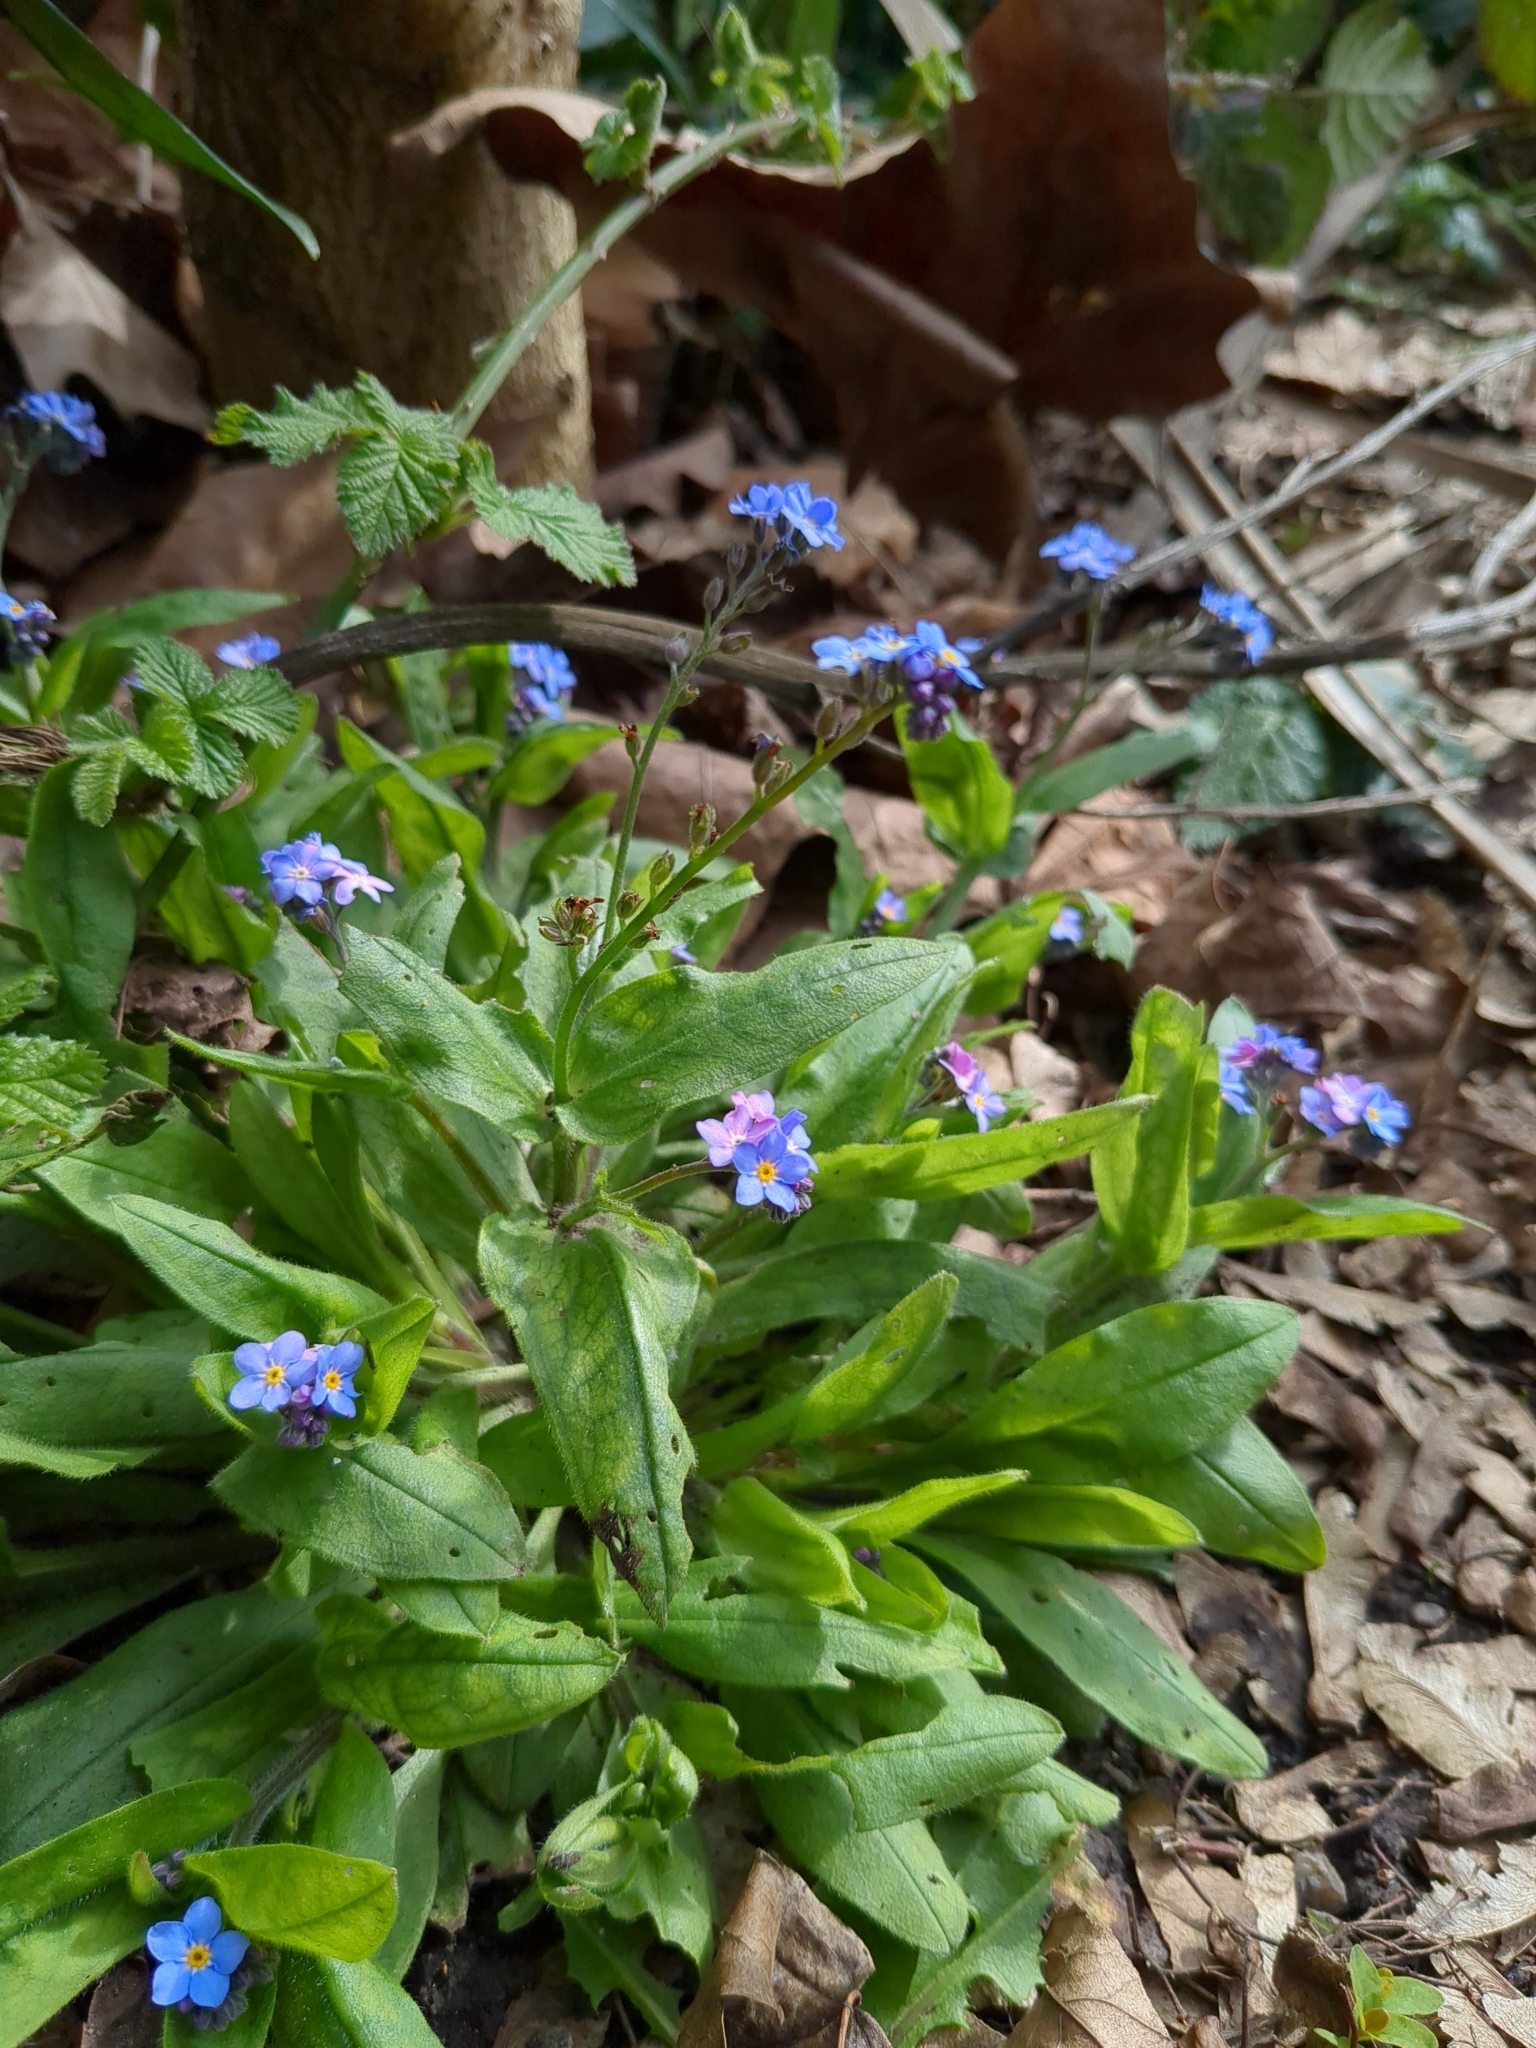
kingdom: Plantae
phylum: Tracheophyta
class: Magnoliopsida
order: Boraginales
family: Boraginaceae
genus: Myosotis
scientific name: Myosotis sylvatica
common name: Wood forget-me-not
